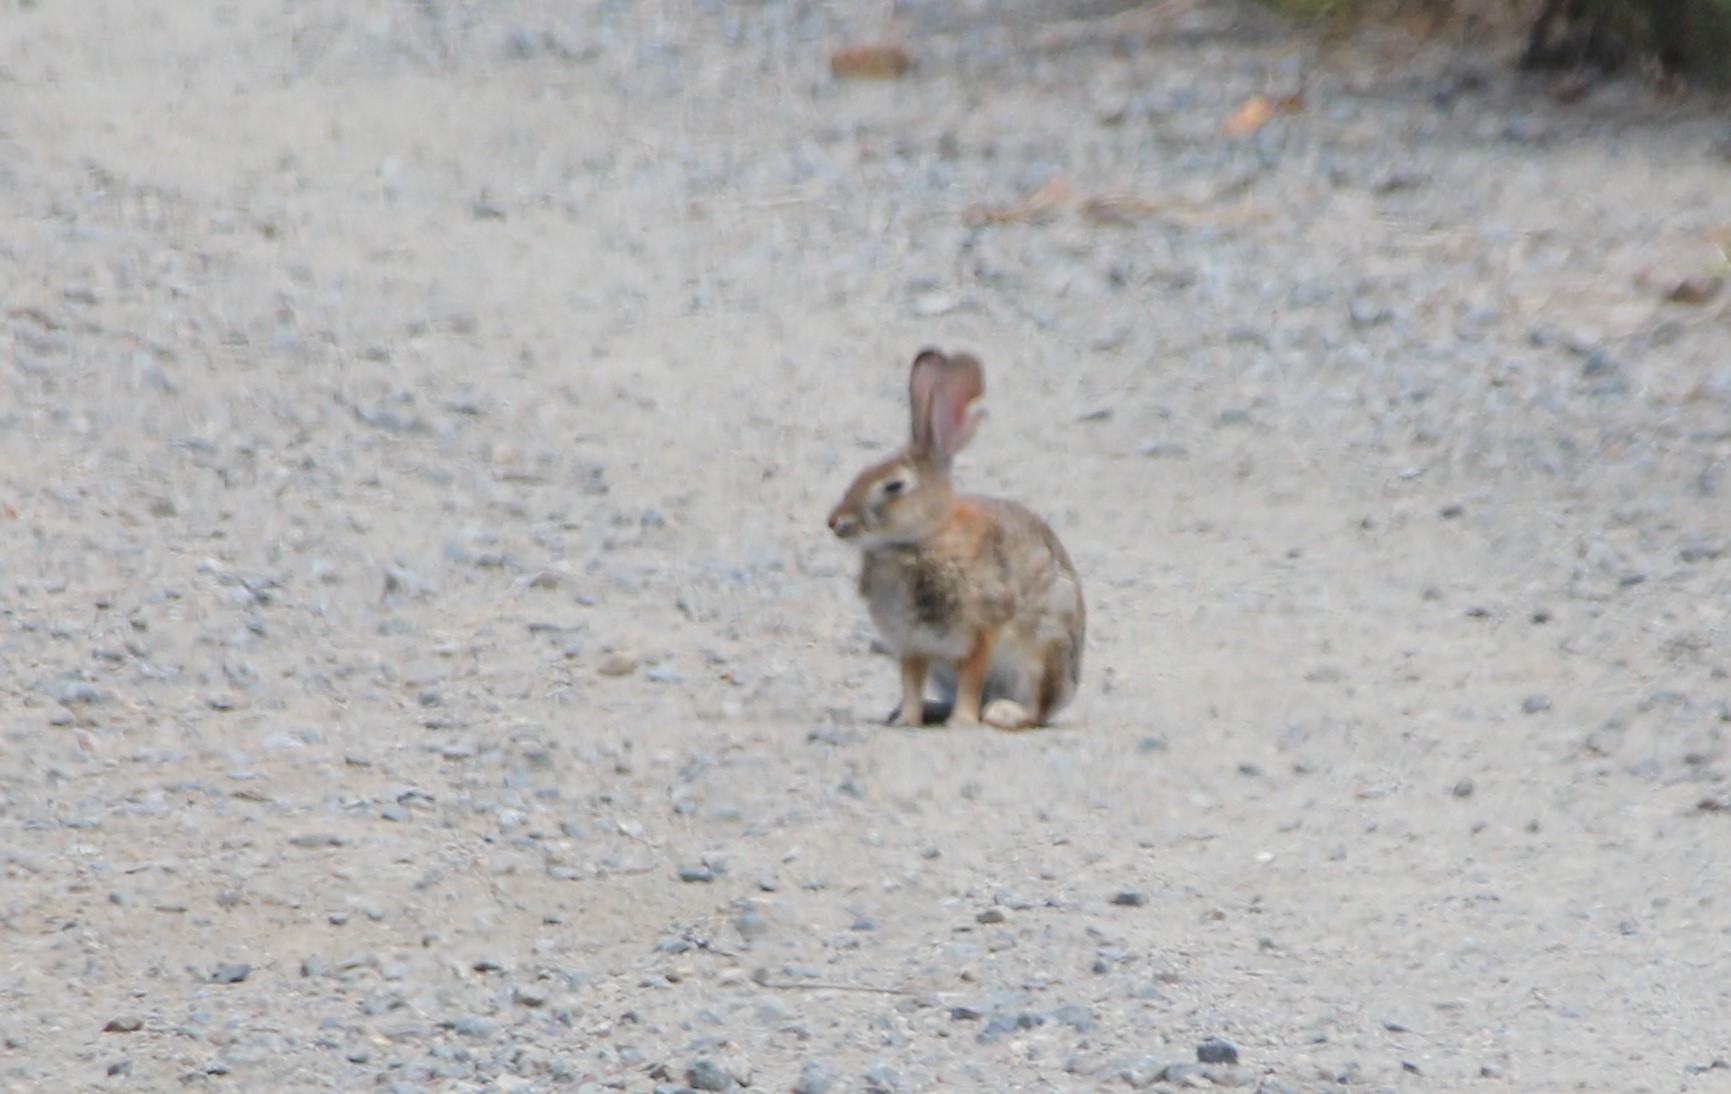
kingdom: Animalia
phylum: Chordata
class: Mammalia
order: Lagomorpha
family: Leporidae
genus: Sylvilagus
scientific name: Sylvilagus audubonii
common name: Desert cottontail
